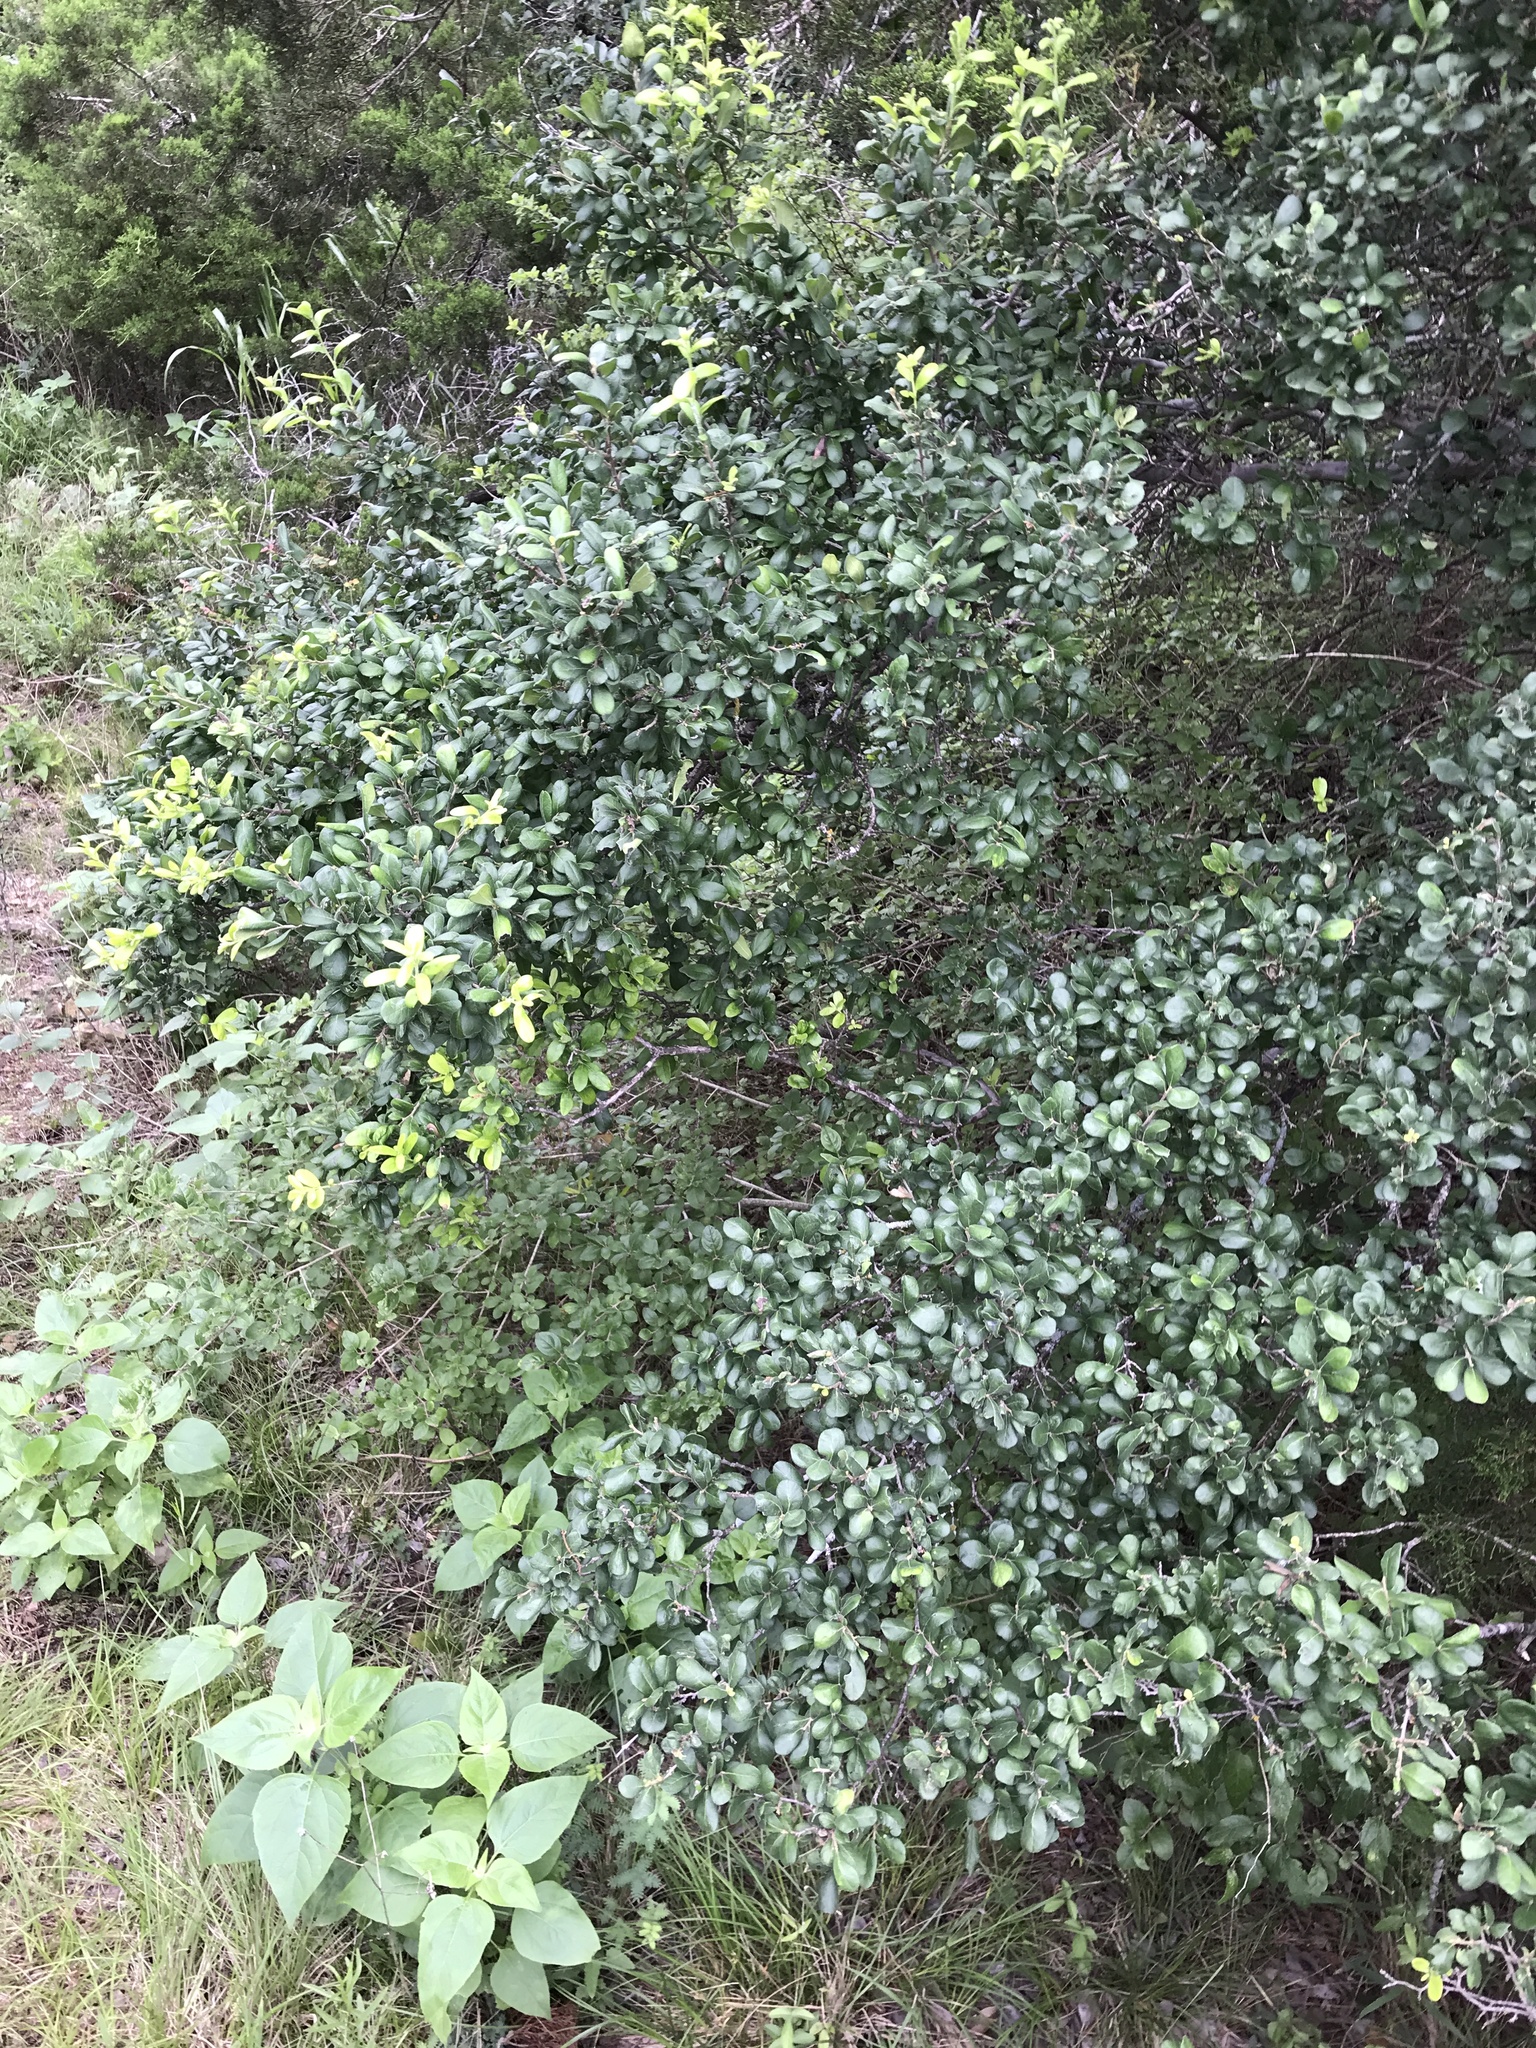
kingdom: Plantae
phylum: Tracheophyta
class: Magnoliopsida
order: Ericales
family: Ebenaceae
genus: Diospyros
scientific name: Diospyros texana
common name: Texas persimmon
